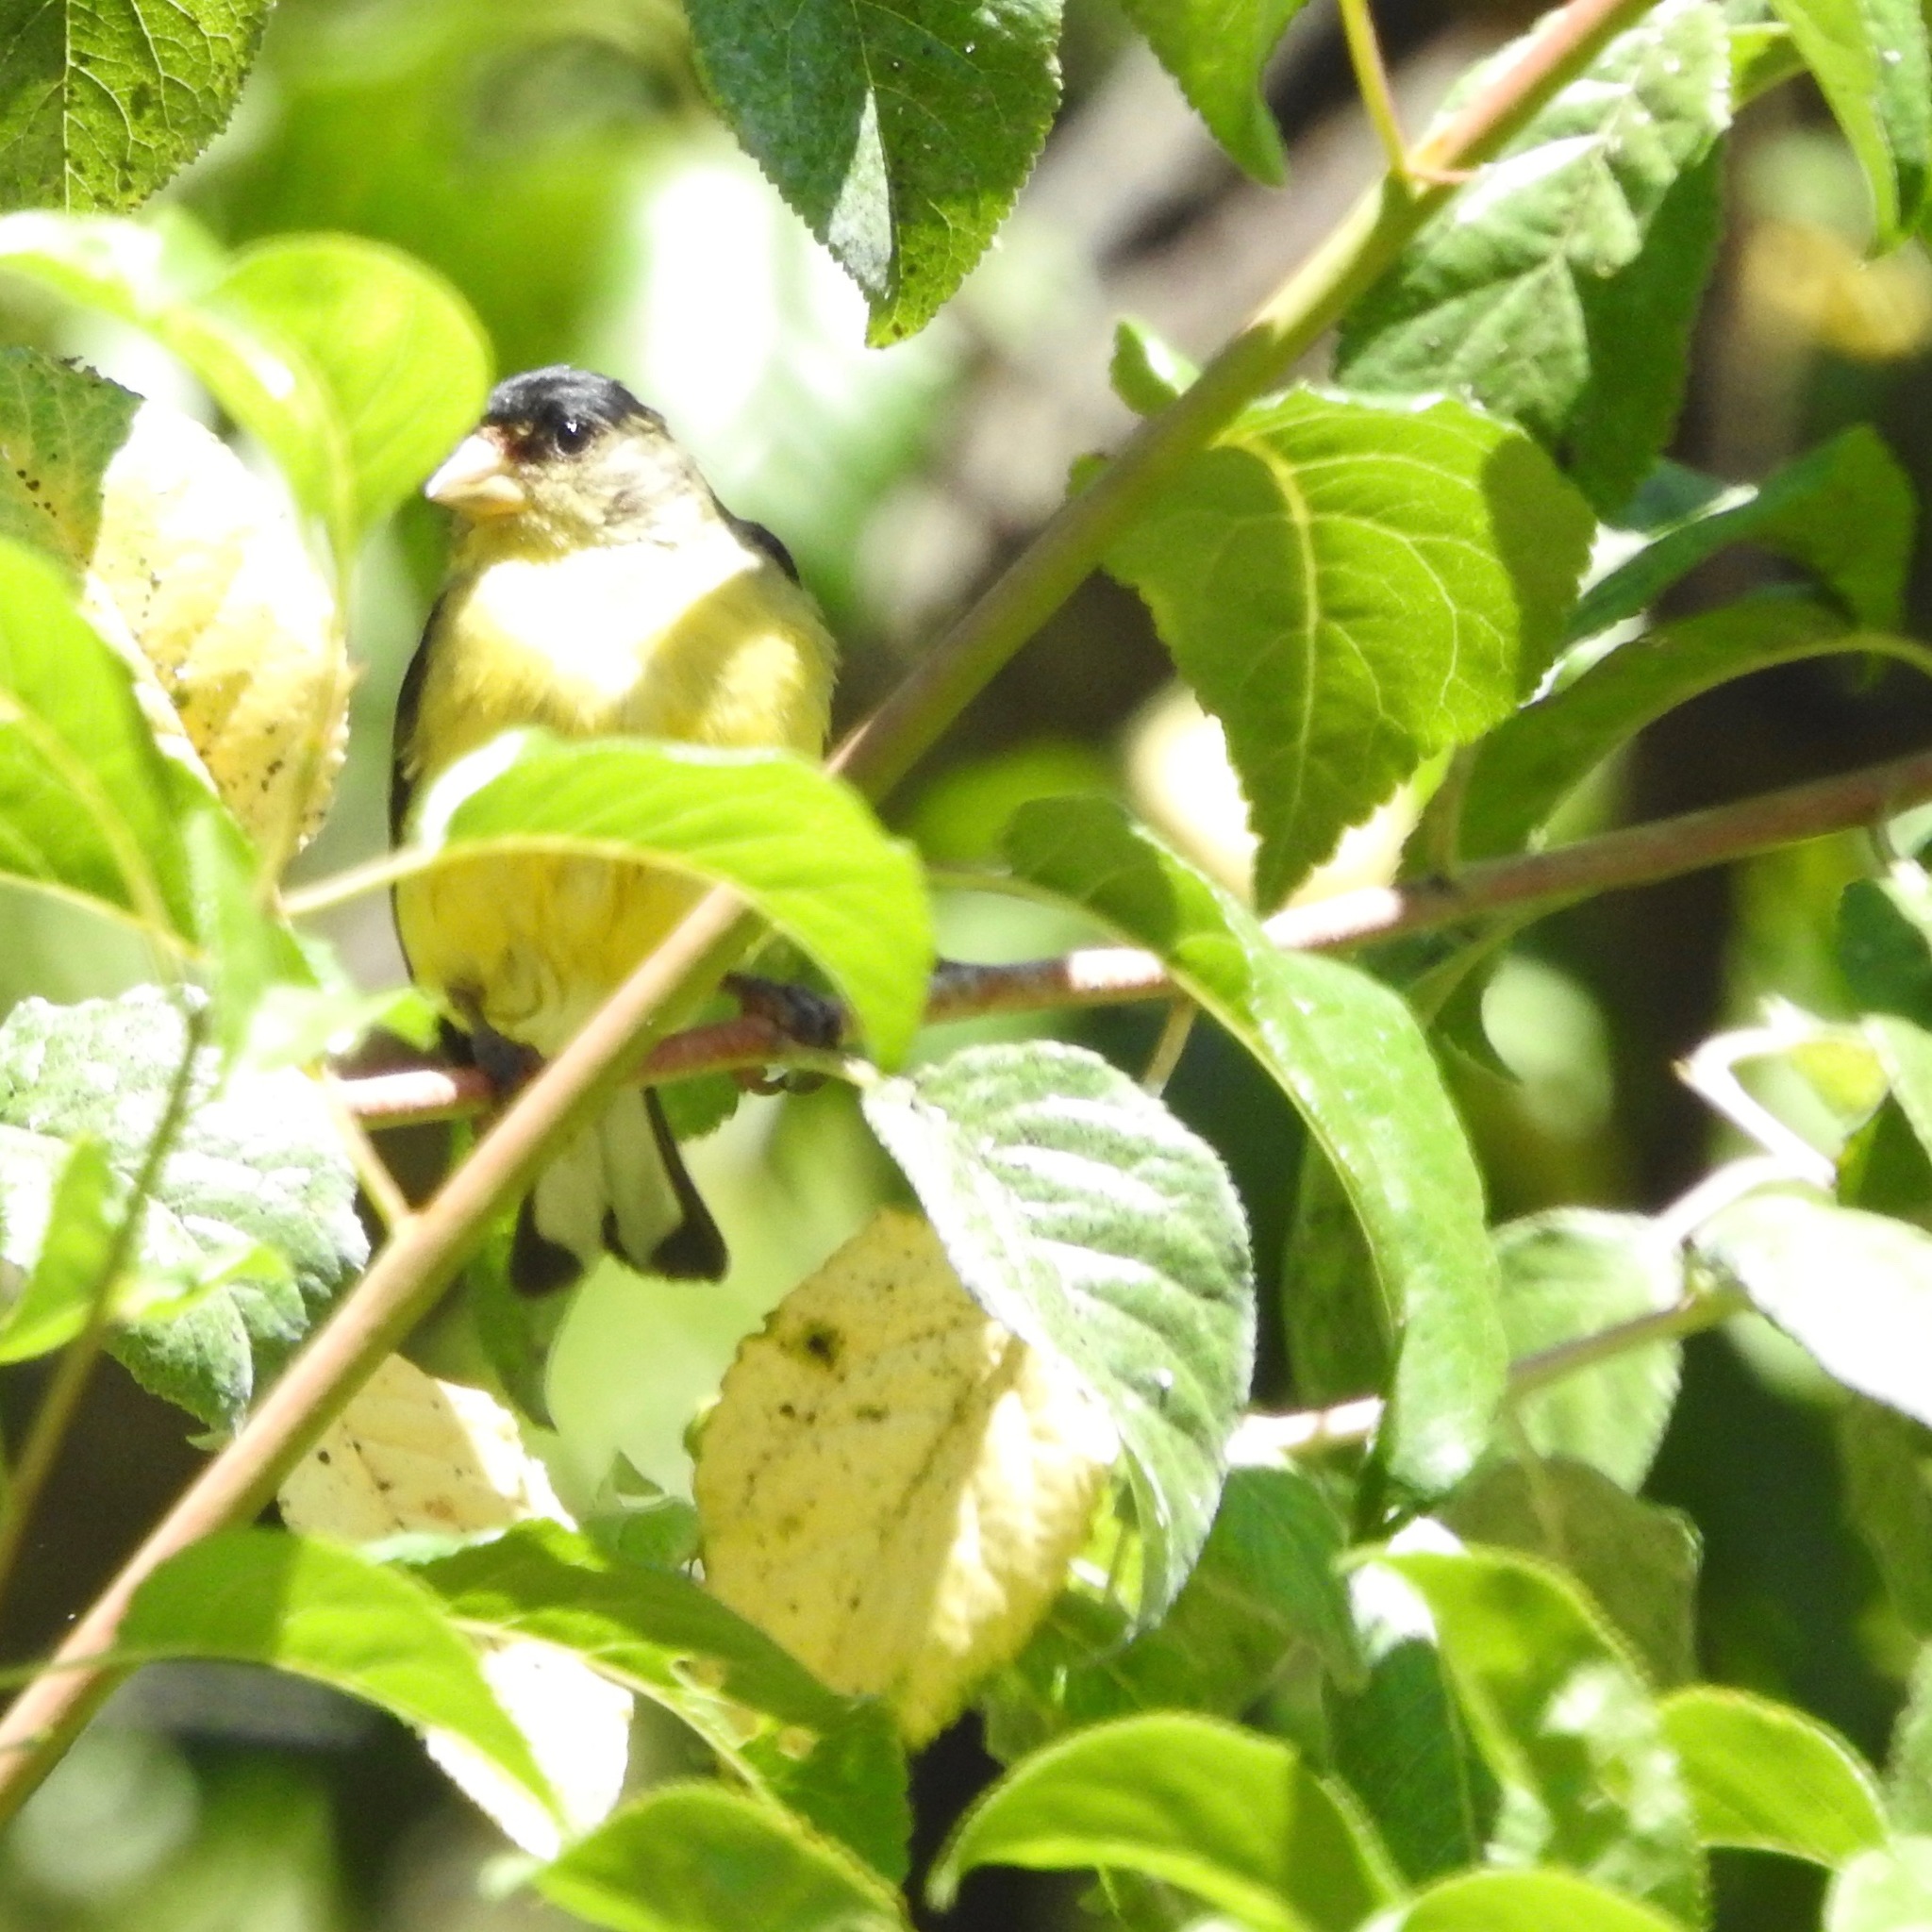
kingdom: Animalia
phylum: Chordata
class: Aves
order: Passeriformes
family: Fringillidae
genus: Spinus
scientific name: Spinus psaltria
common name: Lesser goldfinch
